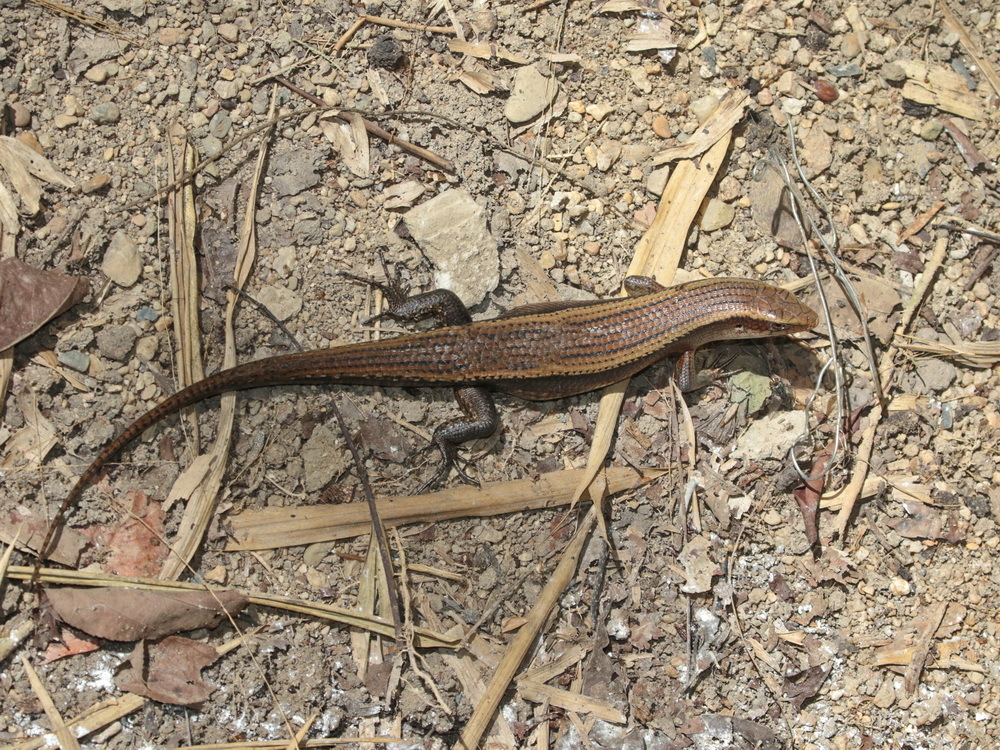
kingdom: Animalia
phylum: Chordata
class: Squamata
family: Scincidae
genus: Eutropis
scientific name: Eutropis multifasciata
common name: Common mabuya
